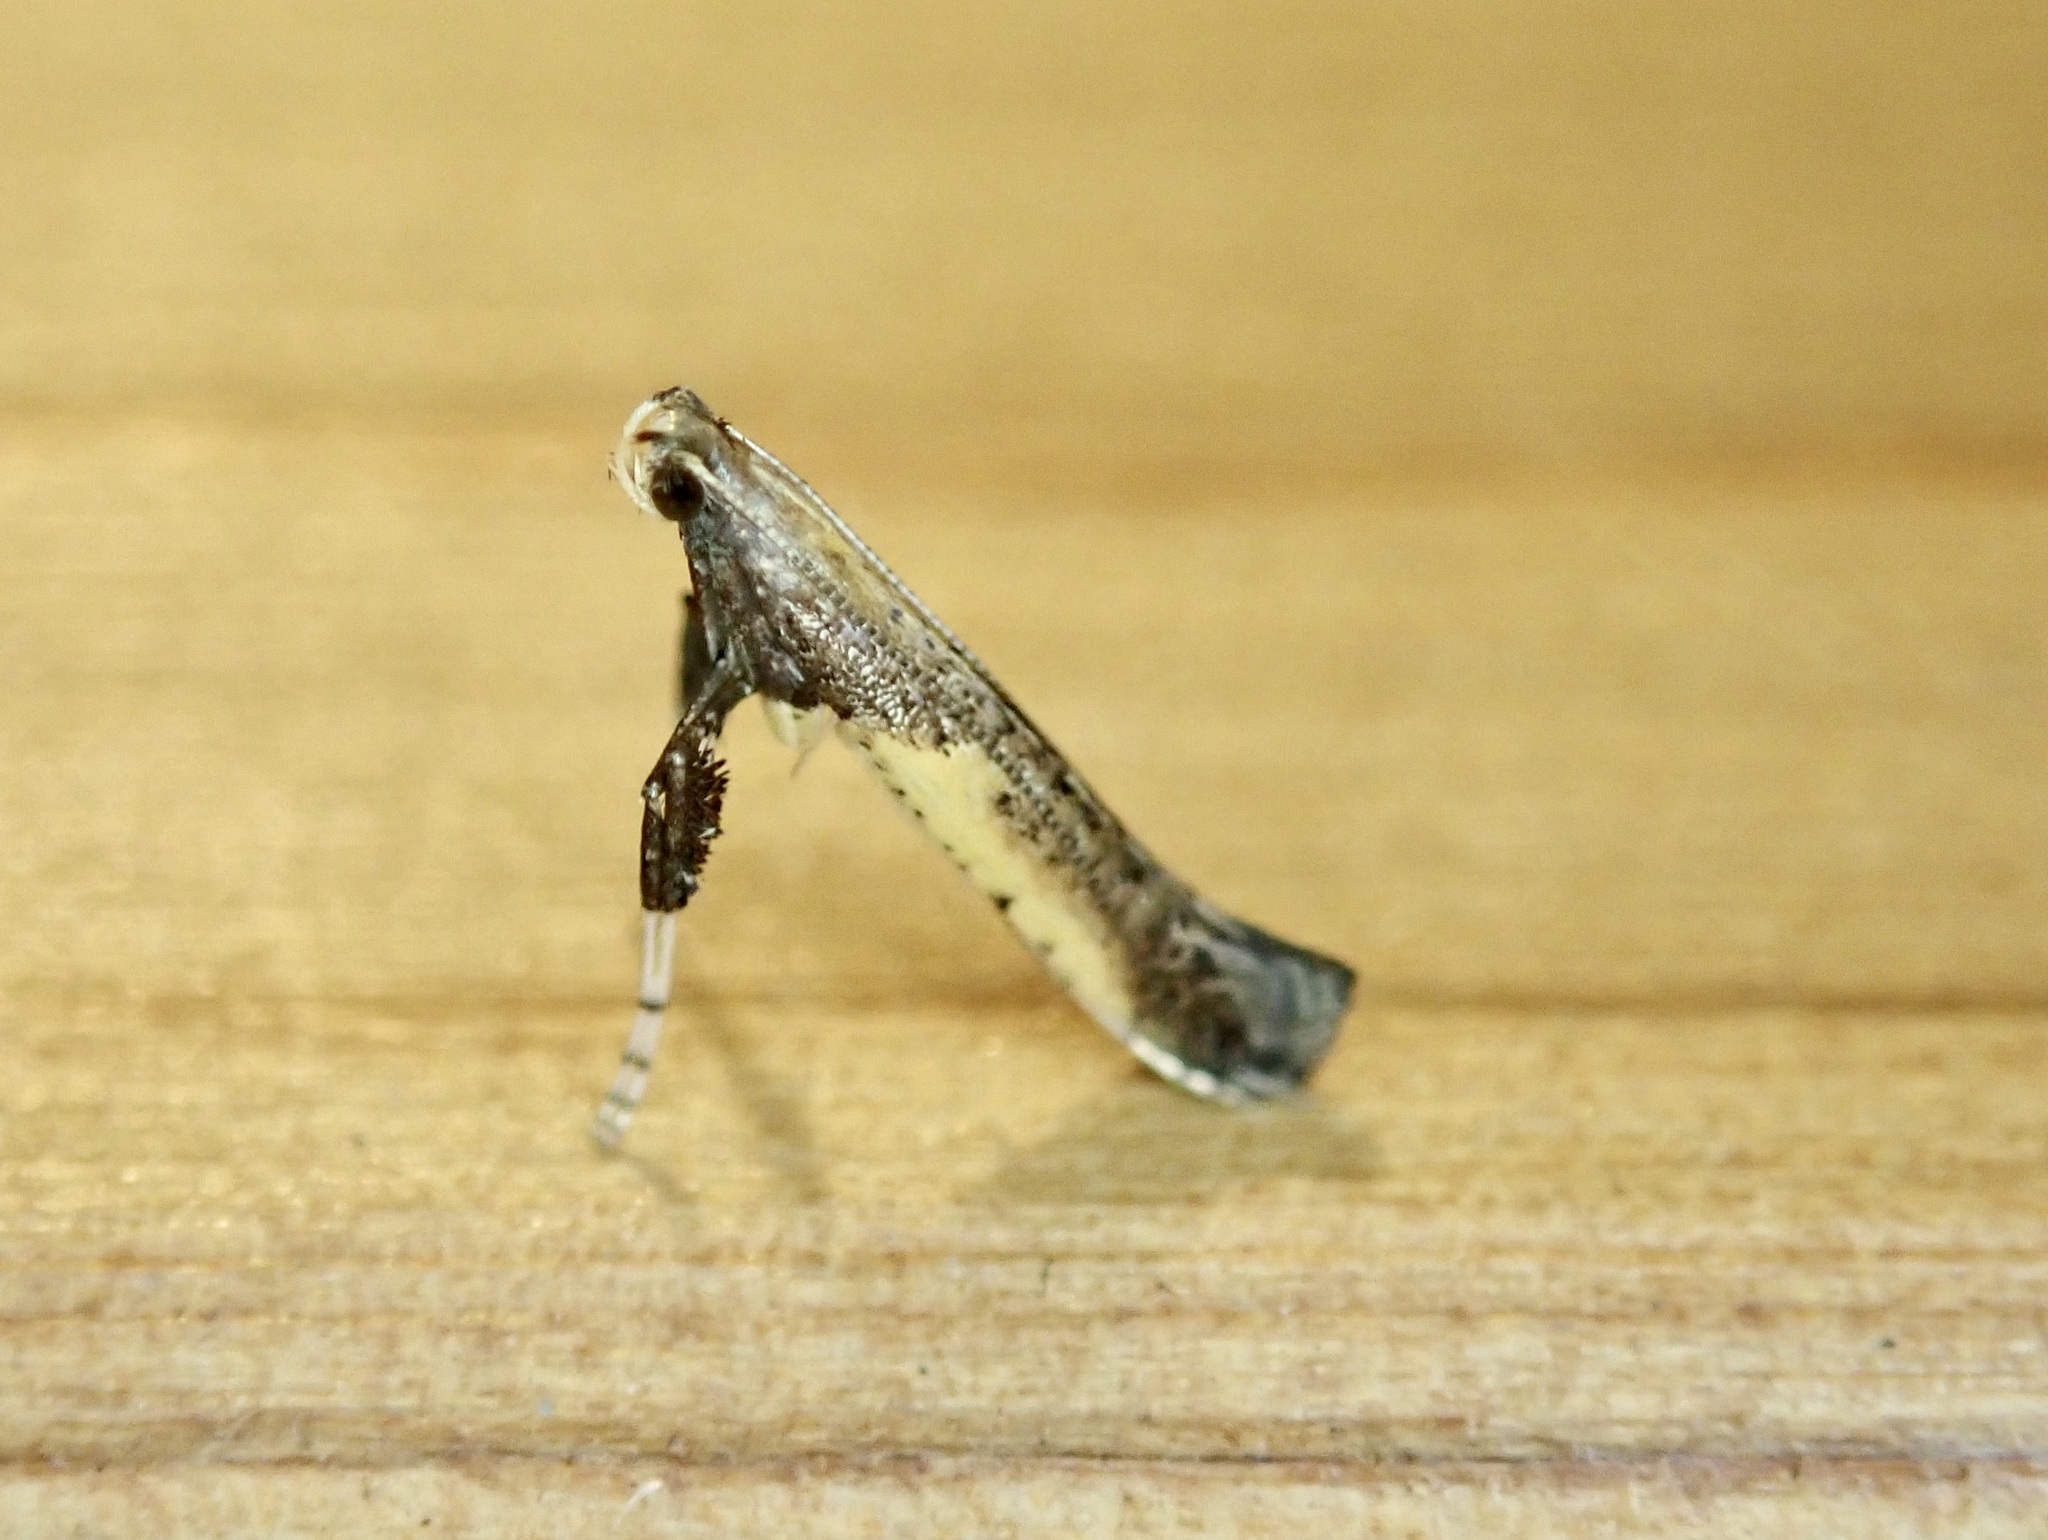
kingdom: Animalia
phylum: Arthropoda
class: Insecta
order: Lepidoptera
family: Gracillariidae
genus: Caloptilia
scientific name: Caloptilia azaleella
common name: Azalea leafminer
